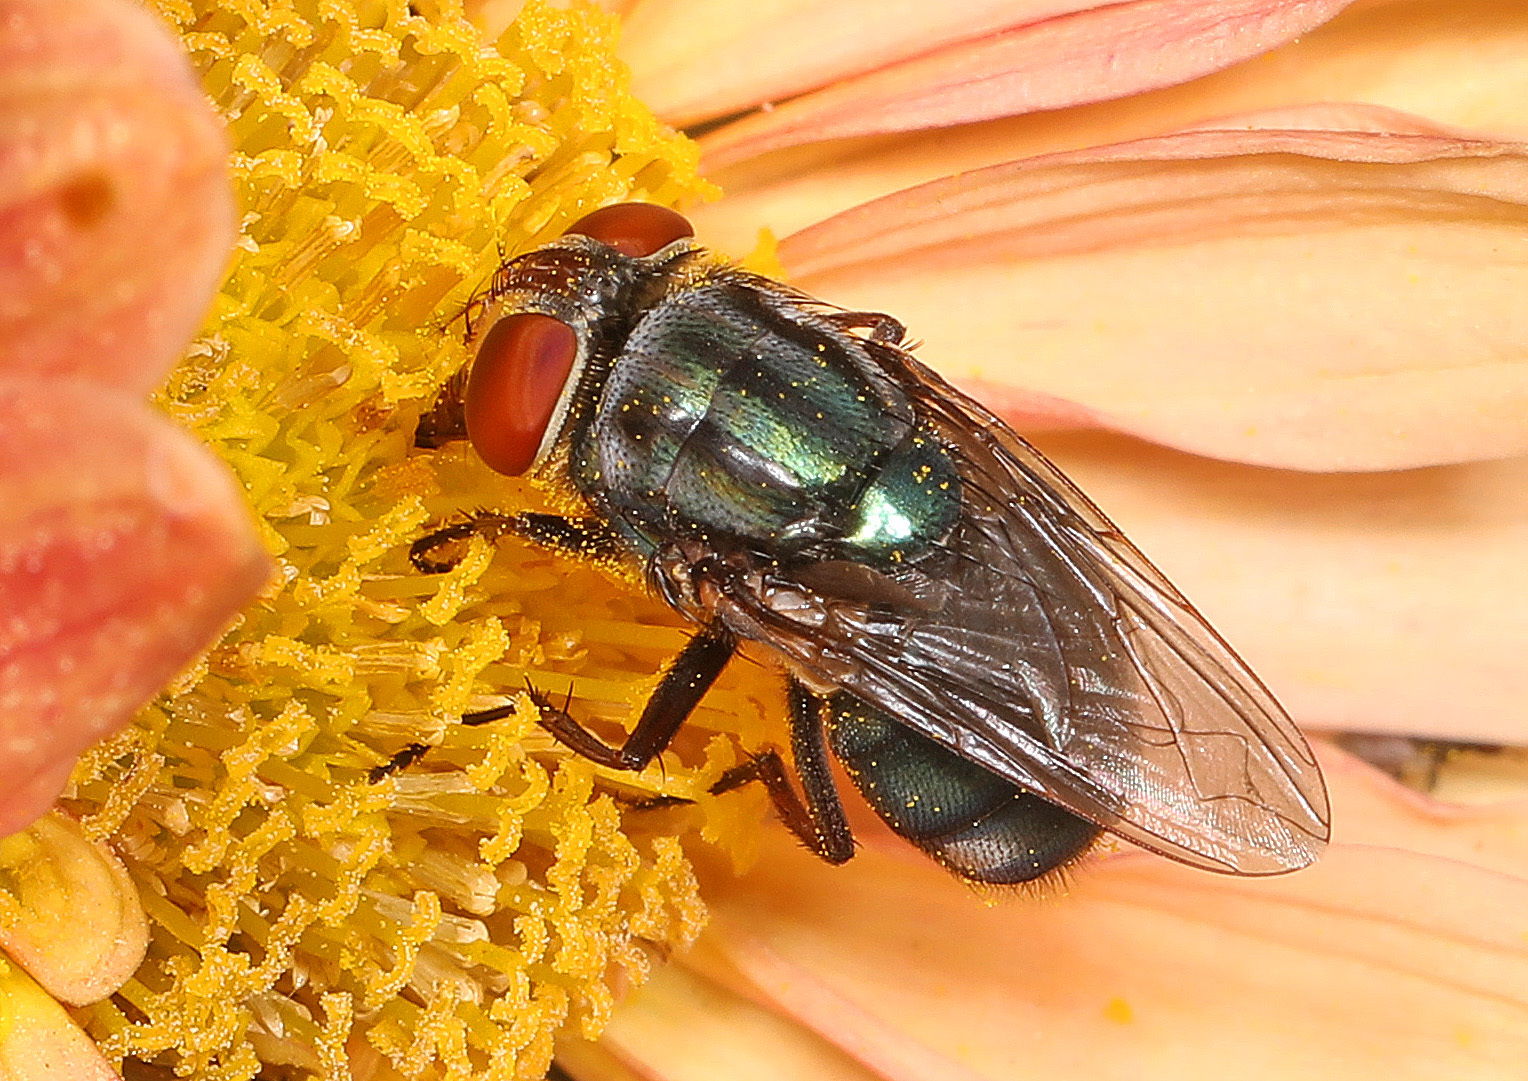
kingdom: Animalia
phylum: Arthropoda
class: Insecta
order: Diptera
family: Calliphoridae
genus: Cochliomyia
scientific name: Cochliomyia macellaria
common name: Secondary screwworm
